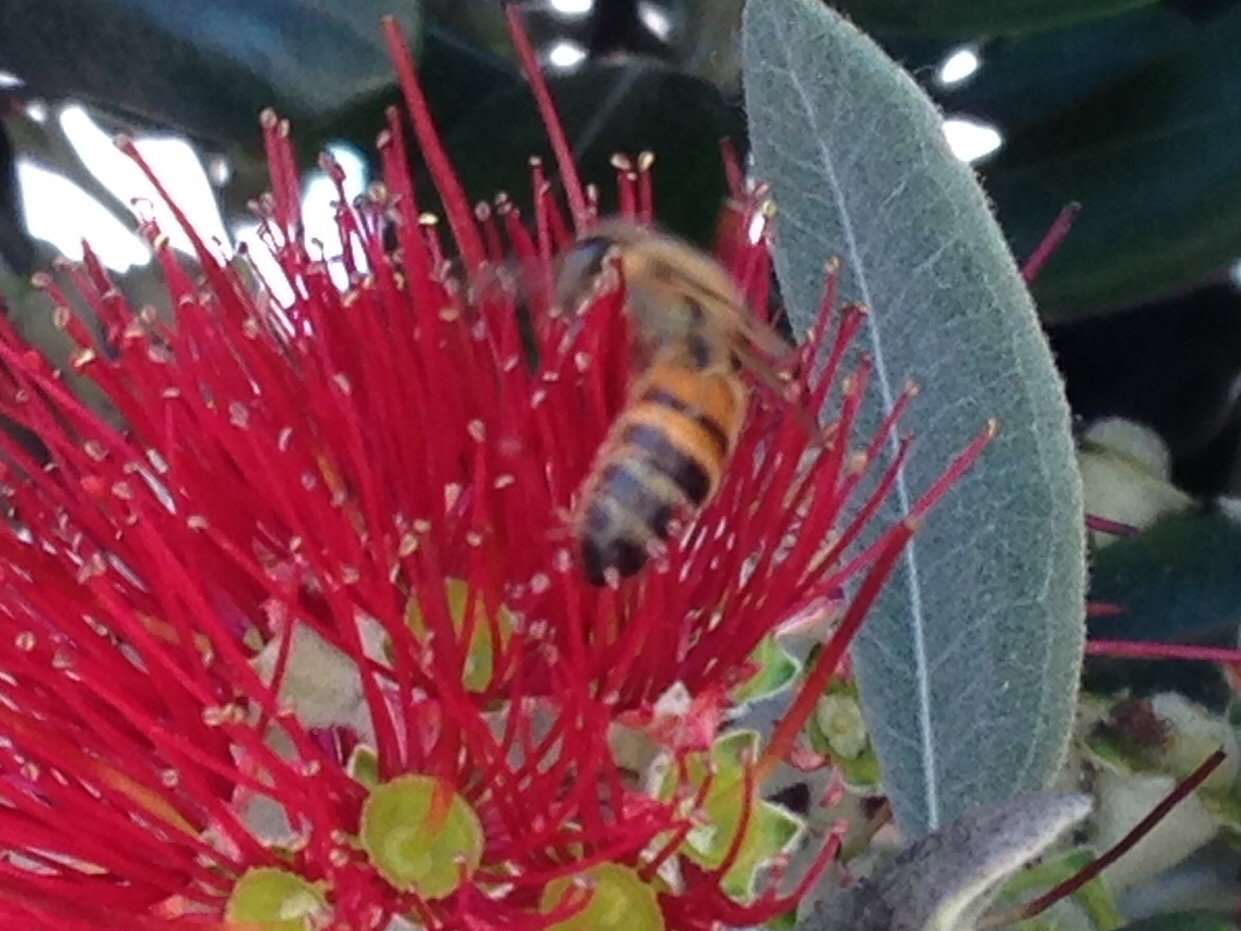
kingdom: Animalia
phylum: Arthropoda
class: Insecta
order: Hymenoptera
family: Apidae
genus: Apis
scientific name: Apis mellifera
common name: Honey bee
